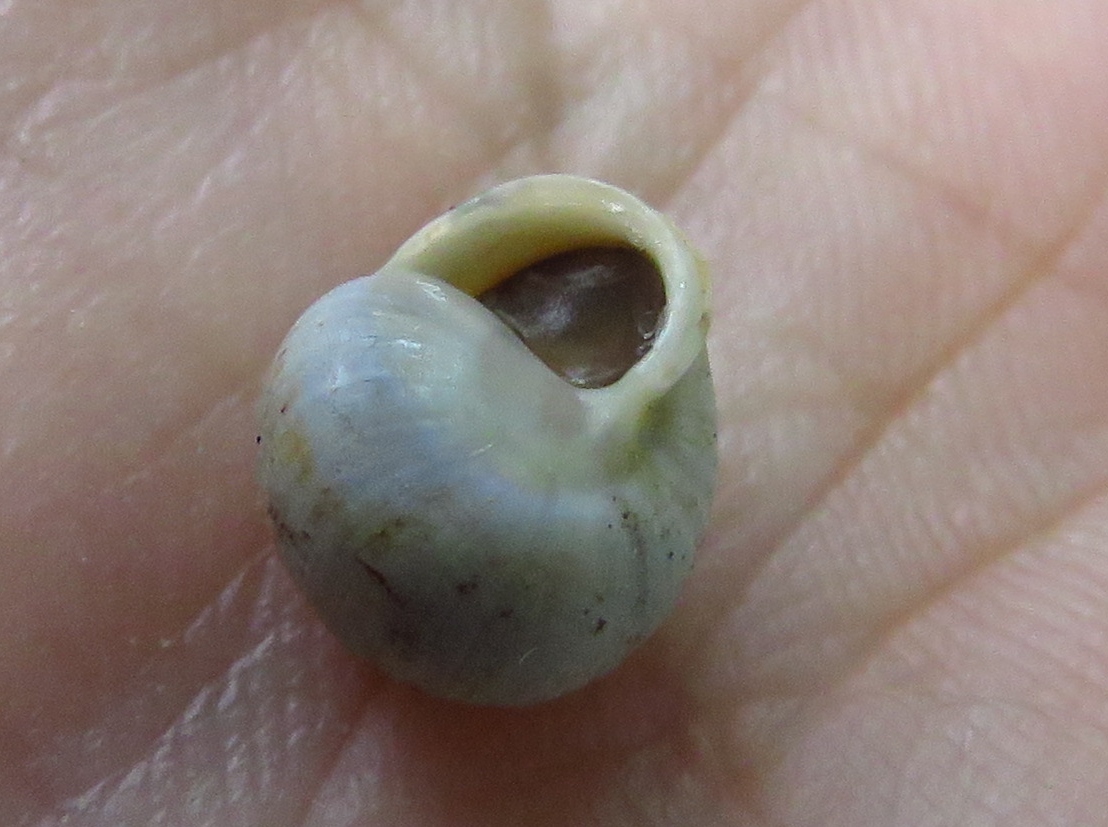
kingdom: Animalia
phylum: Mollusca
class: Gastropoda
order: Cycloneritida
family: Helicinidae
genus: Helicina
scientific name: Helicina orbiculata
